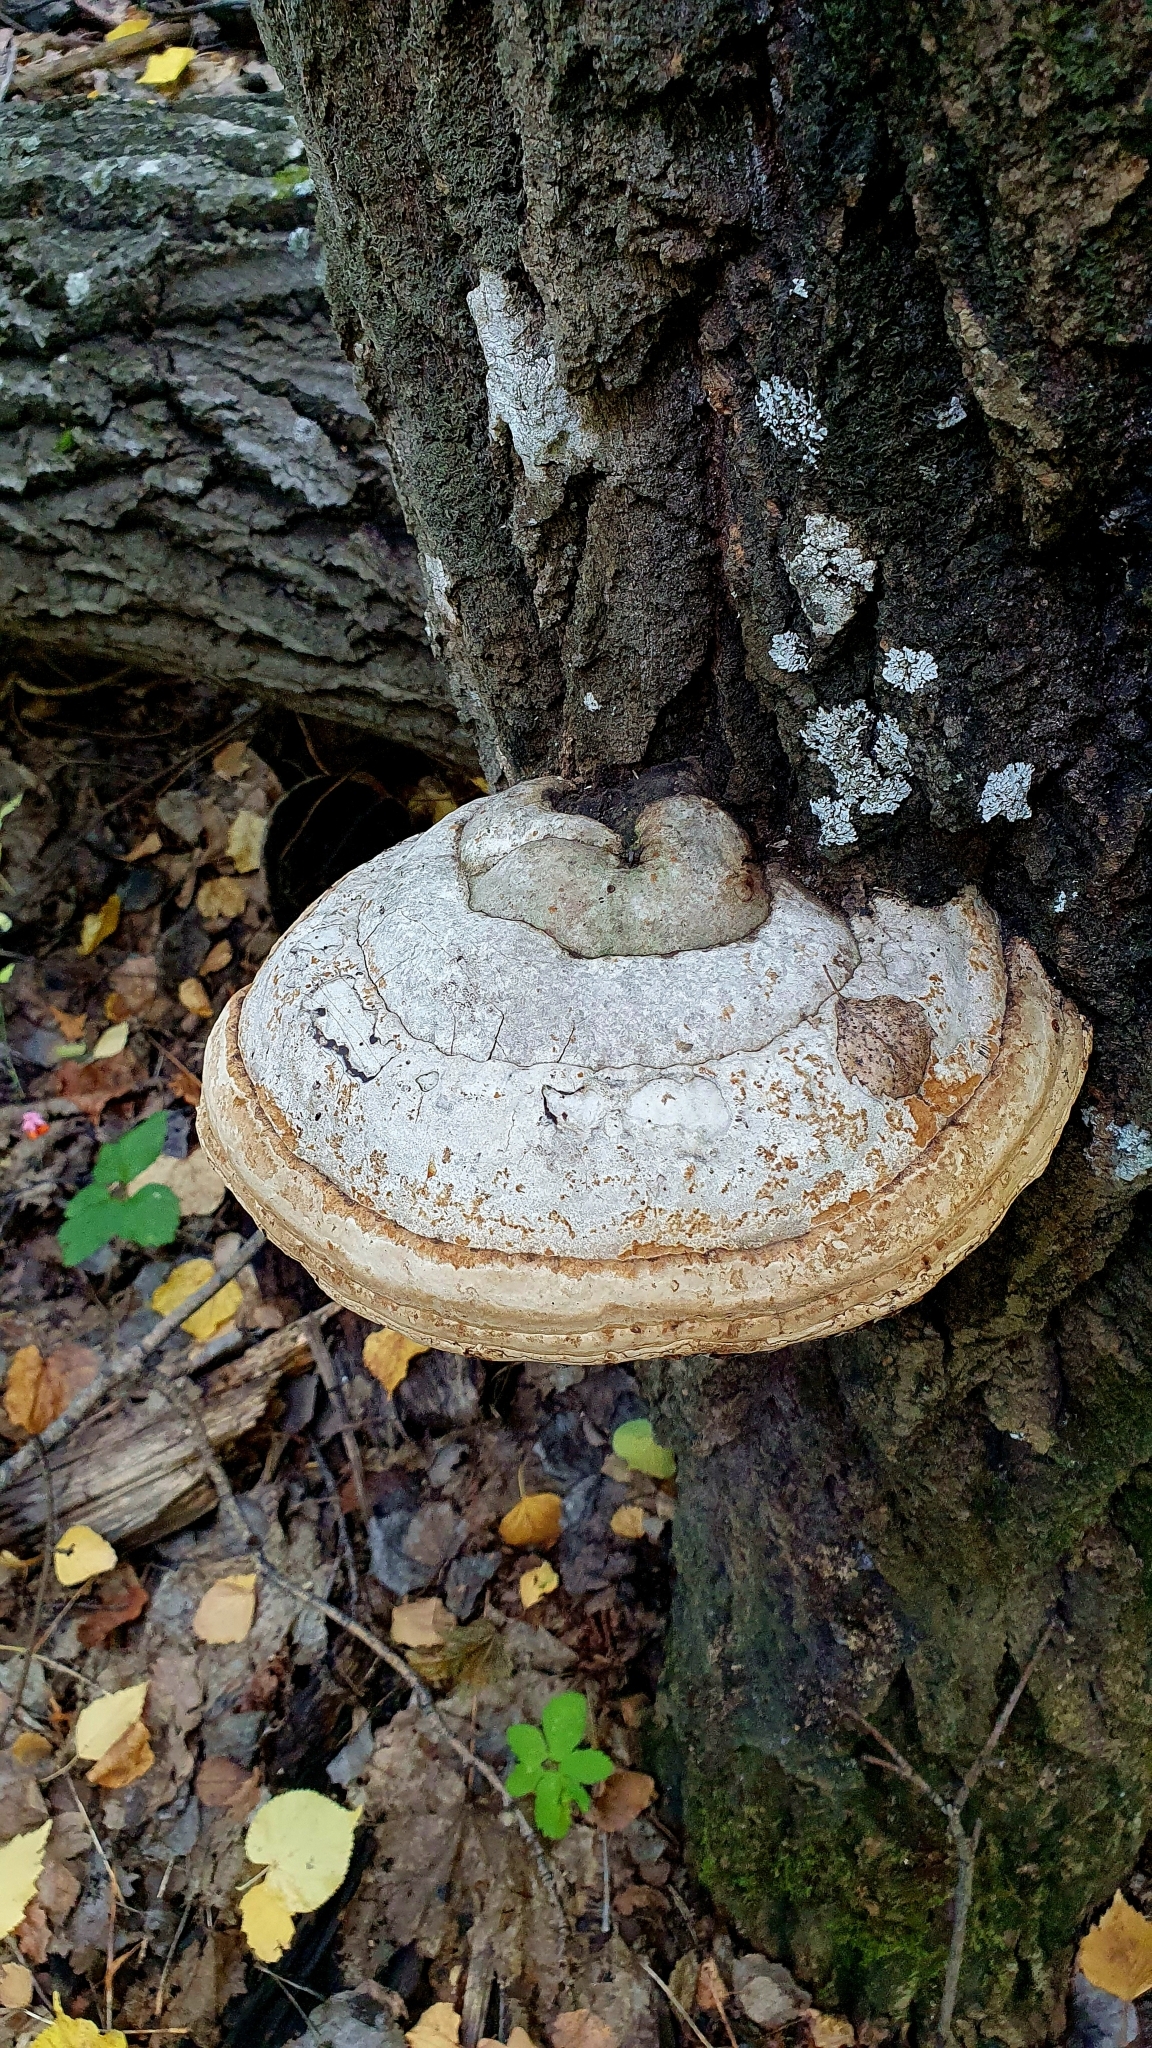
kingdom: Fungi
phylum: Basidiomycota
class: Agaricomycetes
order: Polyporales
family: Polyporaceae
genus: Fomes
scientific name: Fomes fomentarius
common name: Hoof fungus
